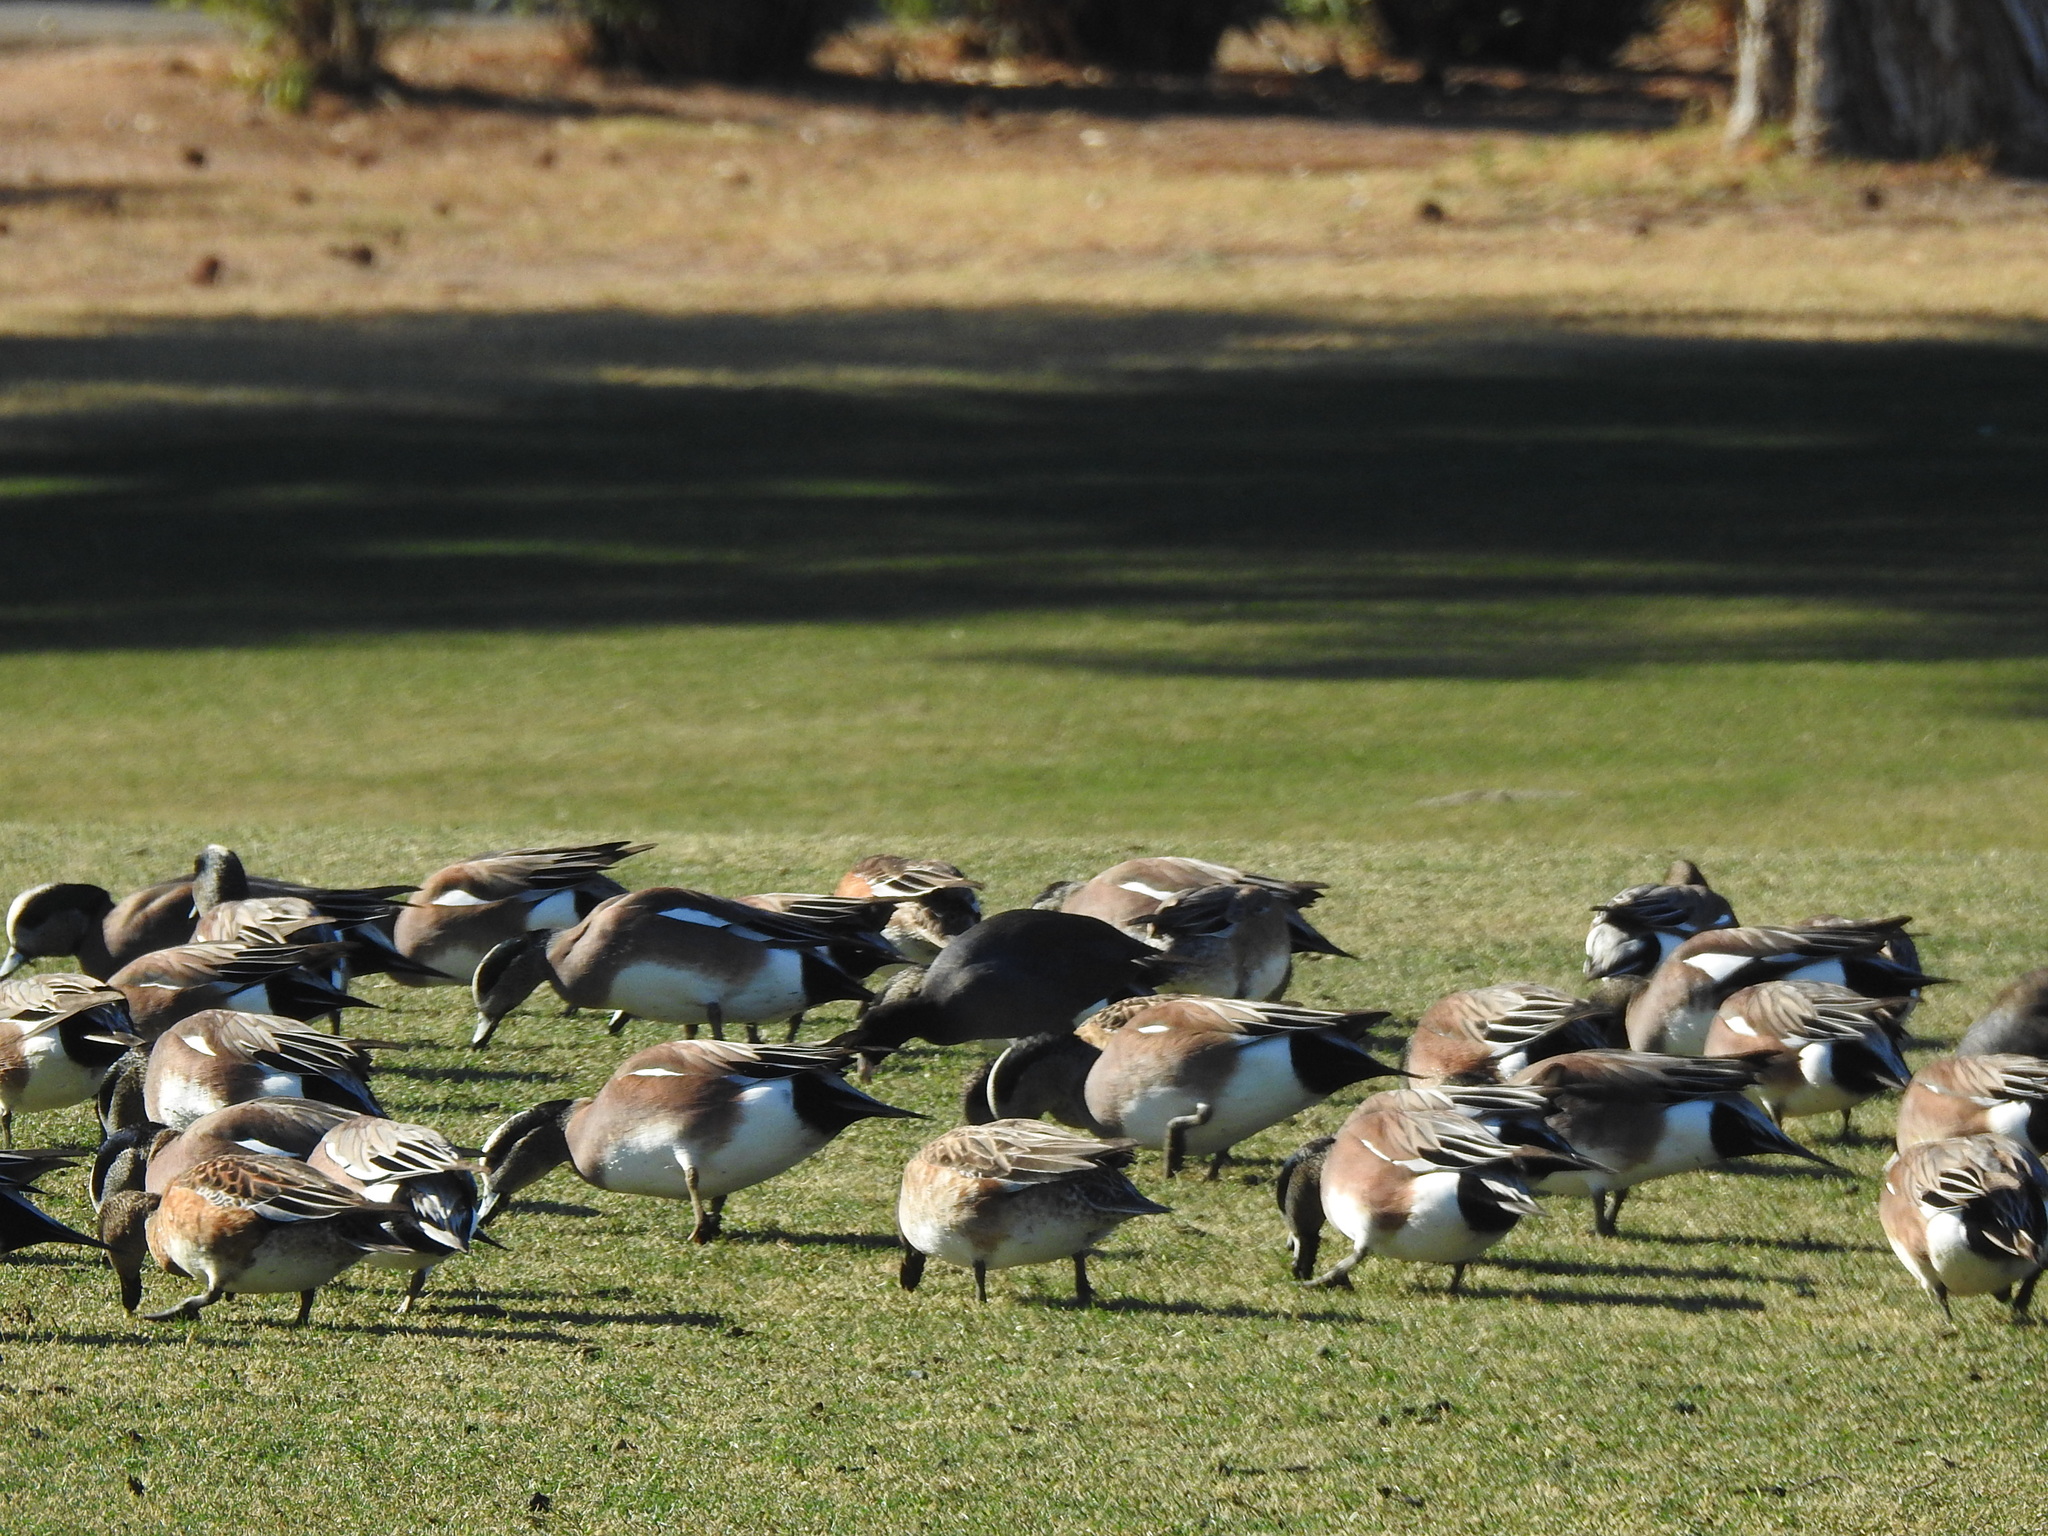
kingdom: Animalia
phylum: Chordata
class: Aves
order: Anseriformes
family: Anatidae
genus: Mareca
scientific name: Mareca americana
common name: American wigeon
